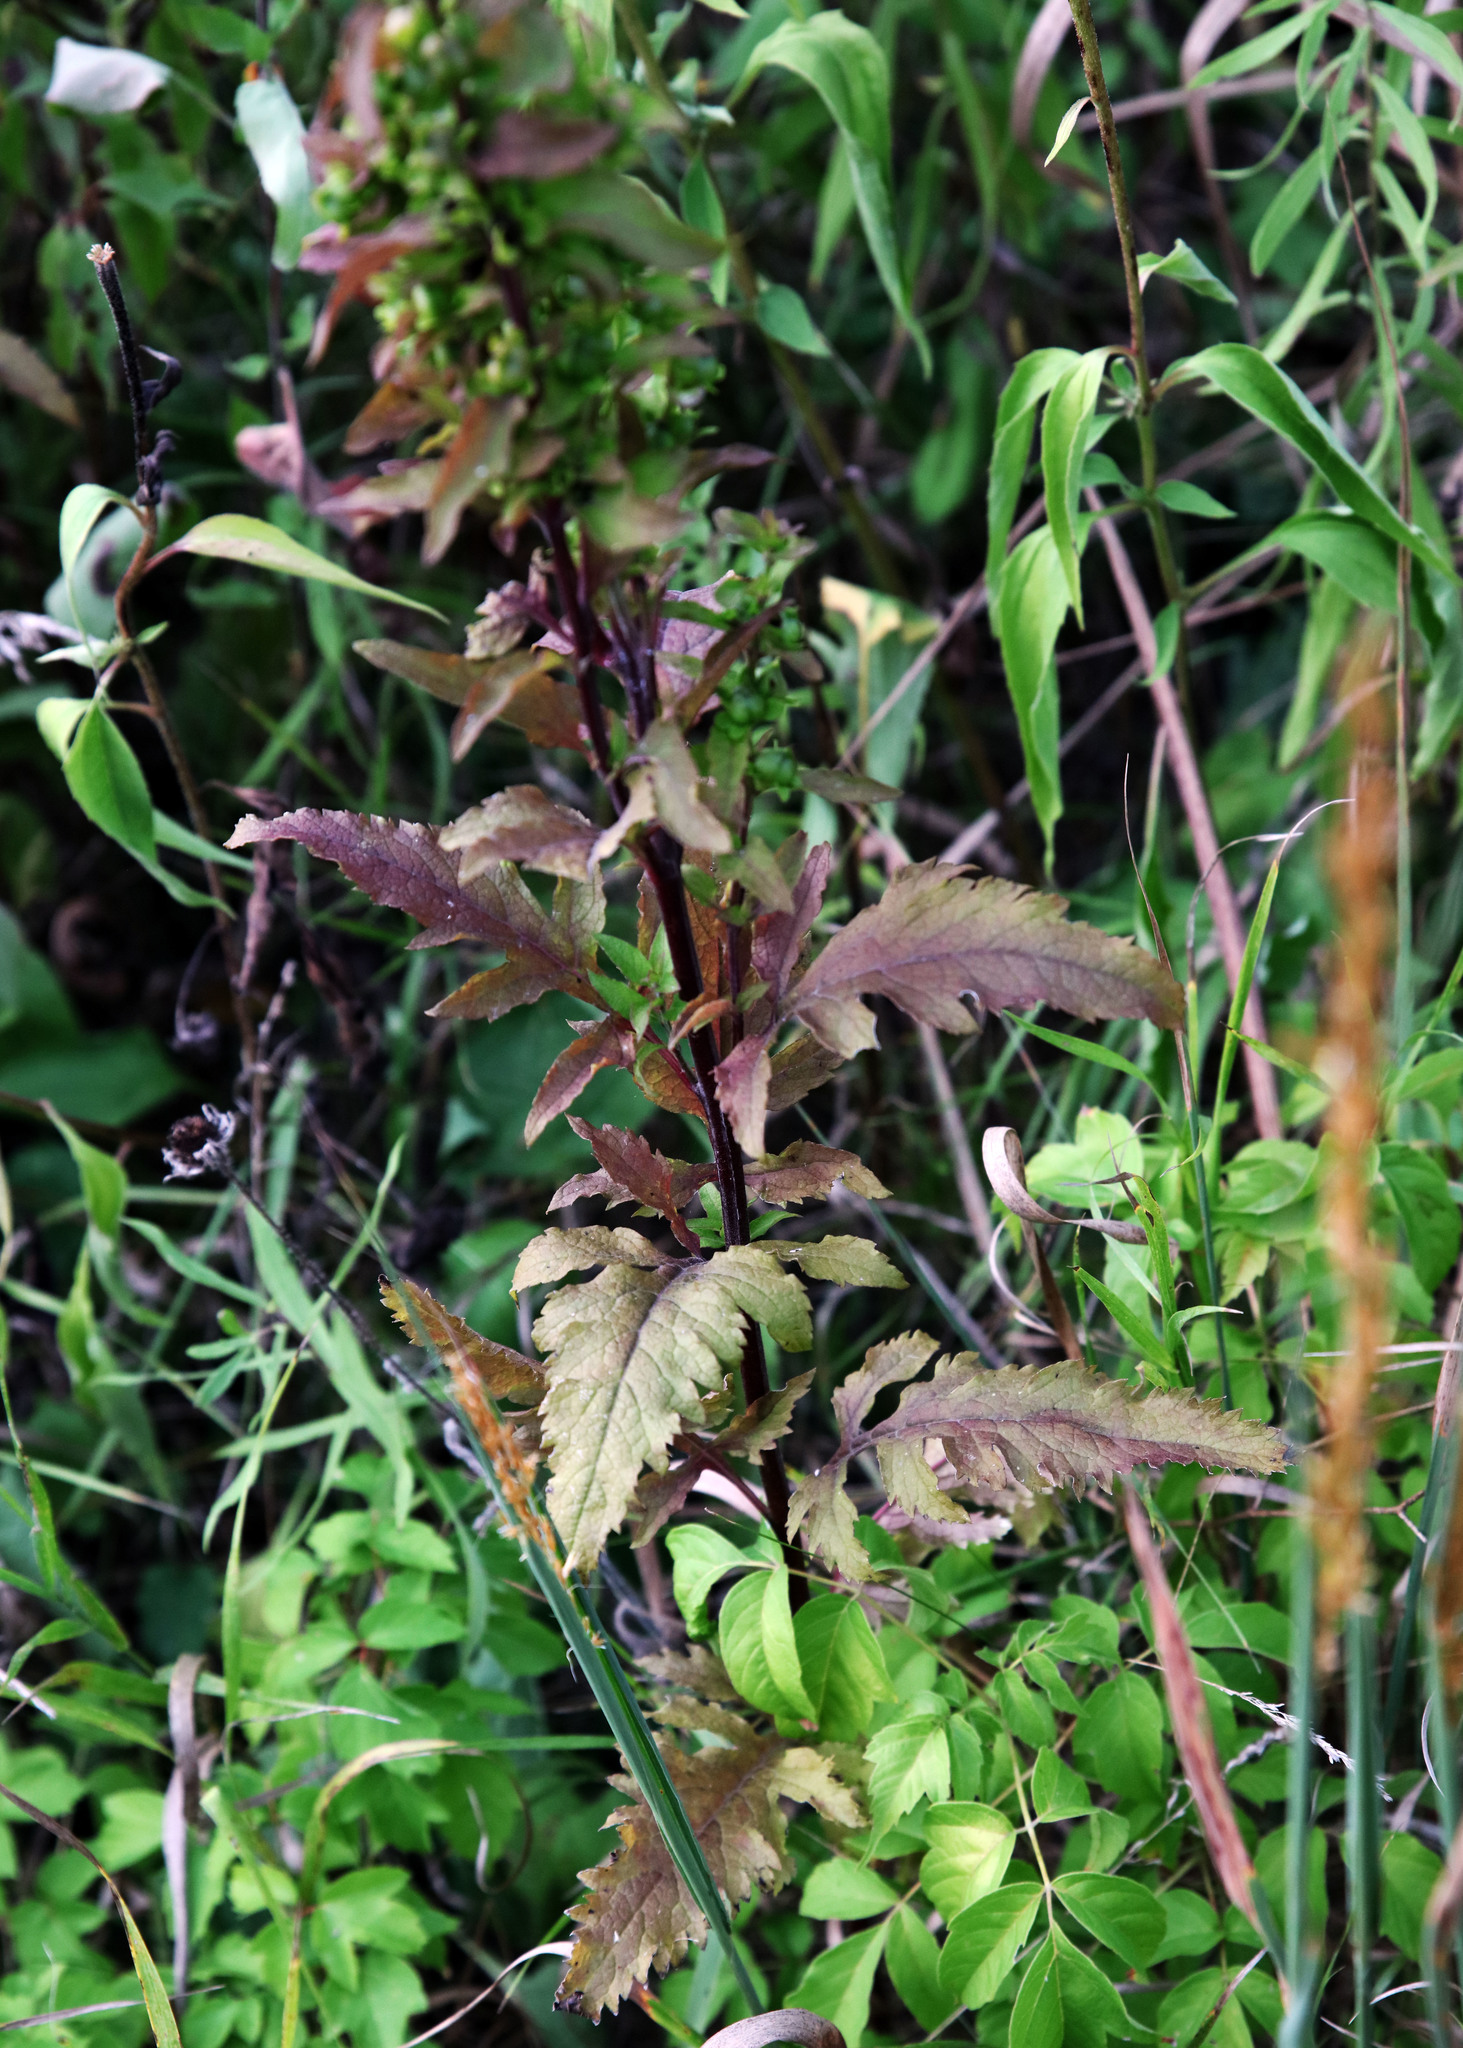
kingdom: Plantae
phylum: Tracheophyta
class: Magnoliopsida
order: Lamiales
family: Orobanchaceae
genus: Dasistoma
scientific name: Dasistoma macrophyllum
